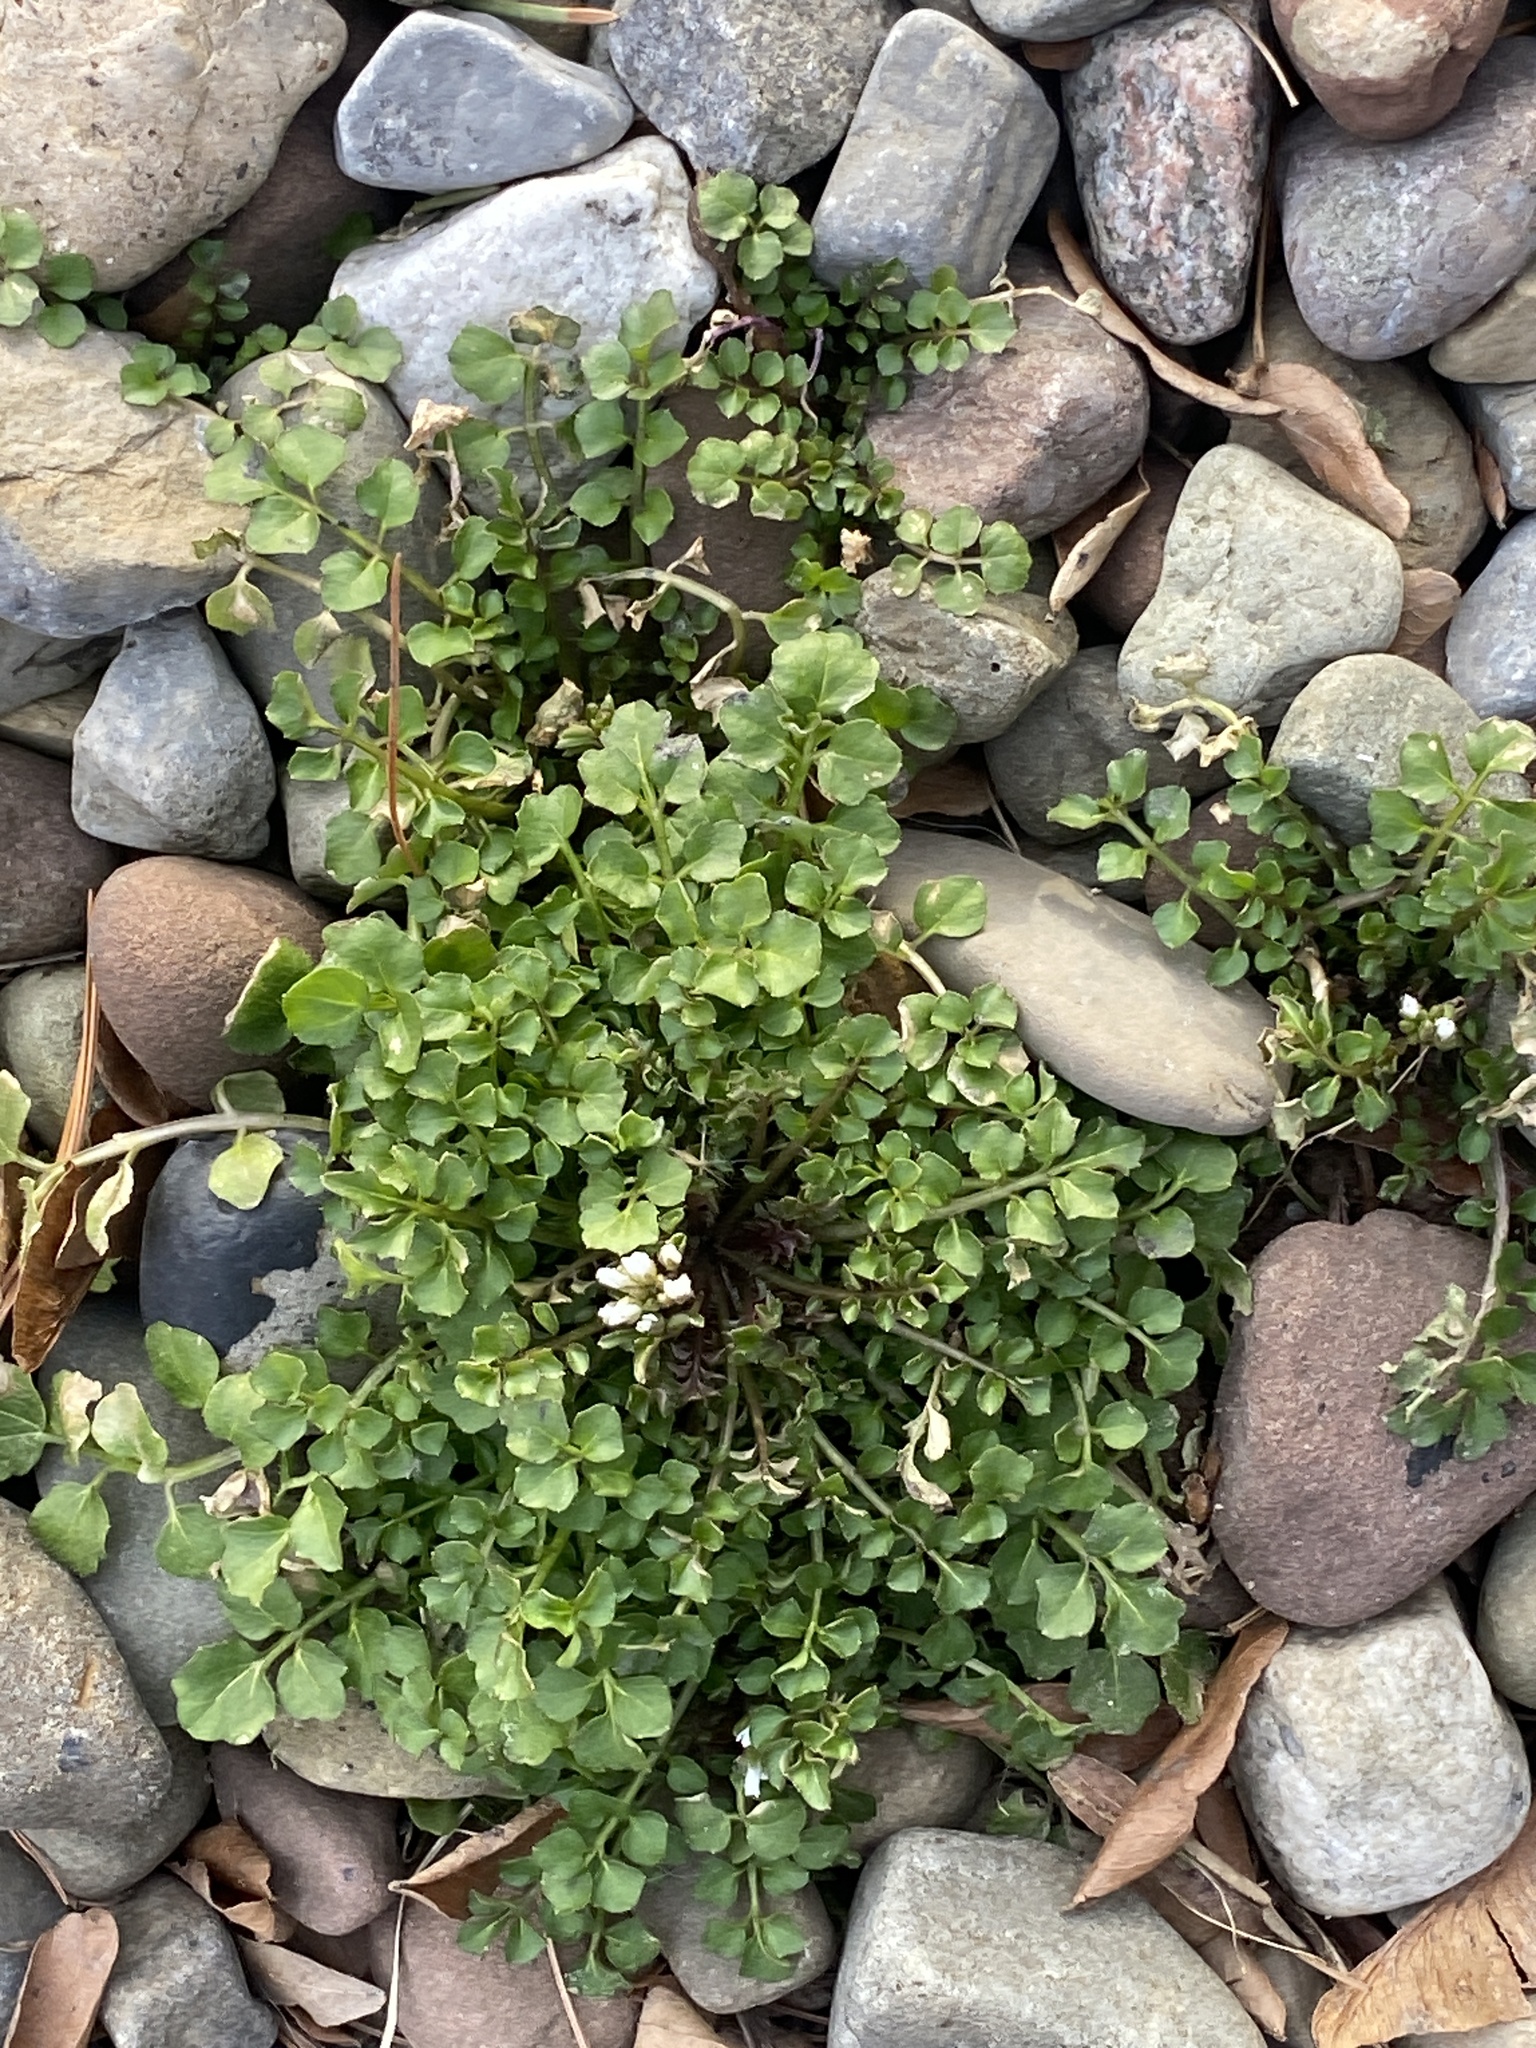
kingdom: Plantae
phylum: Tracheophyta
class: Magnoliopsida
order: Brassicales
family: Brassicaceae
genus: Cardamine
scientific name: Cardamine hirsuta
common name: Hairy bittercress
